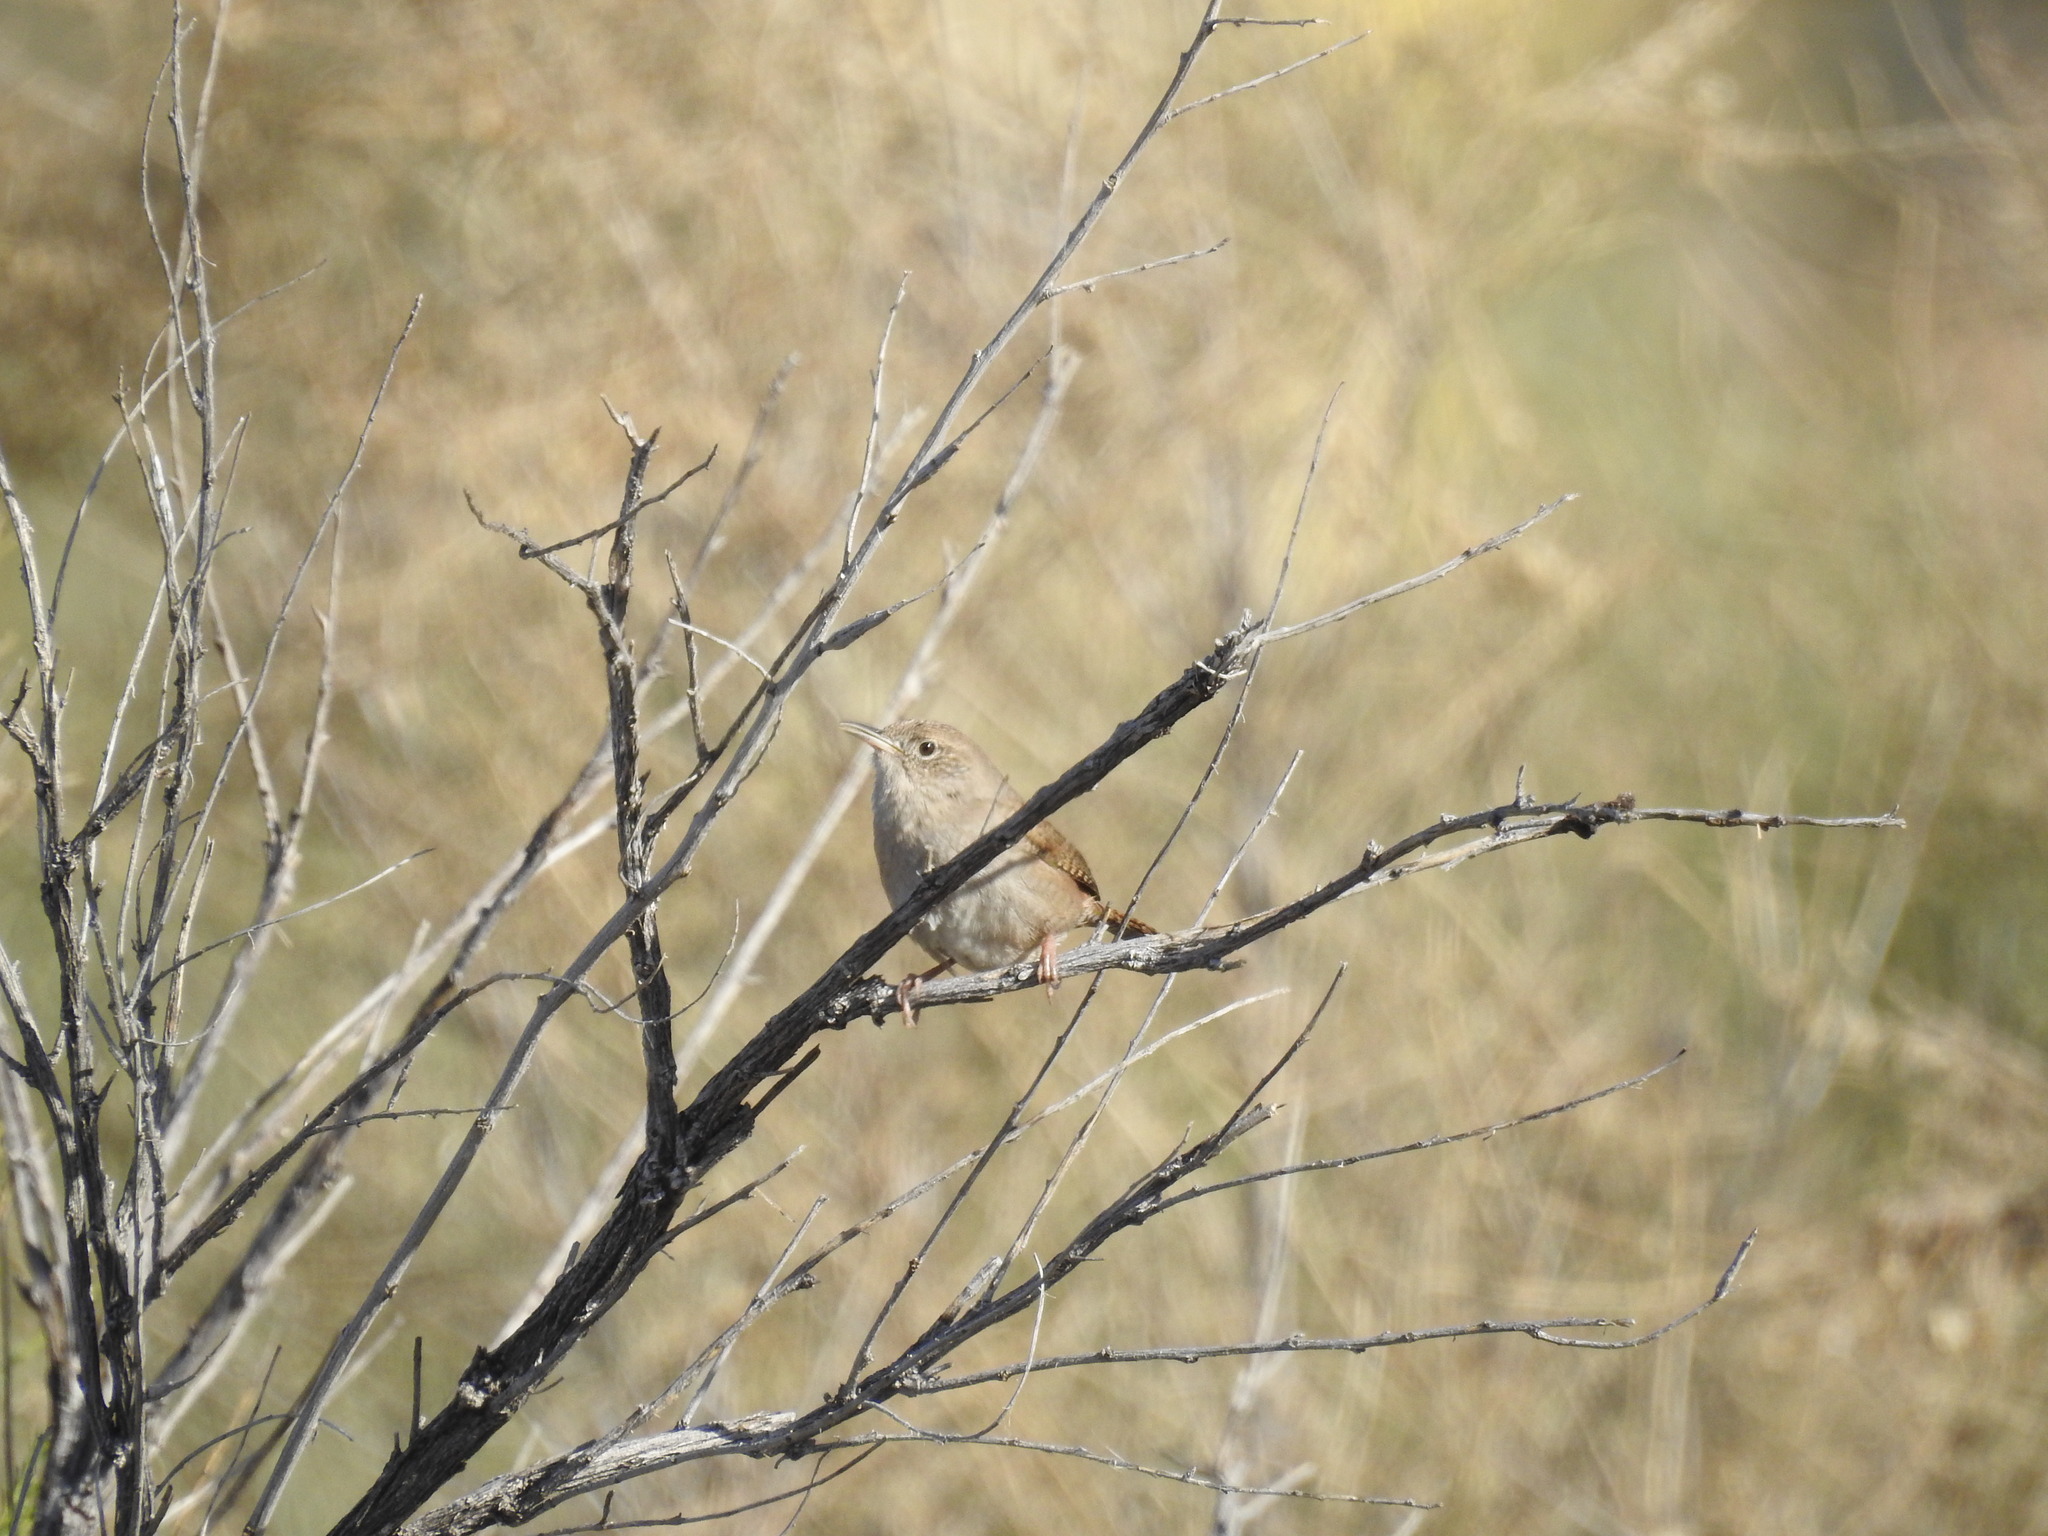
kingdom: Animalia
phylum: Chordata
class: Aves
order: Passeriformes
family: Troglodytidae
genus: Troglodytes
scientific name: Troglodytes aedon
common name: House wren
